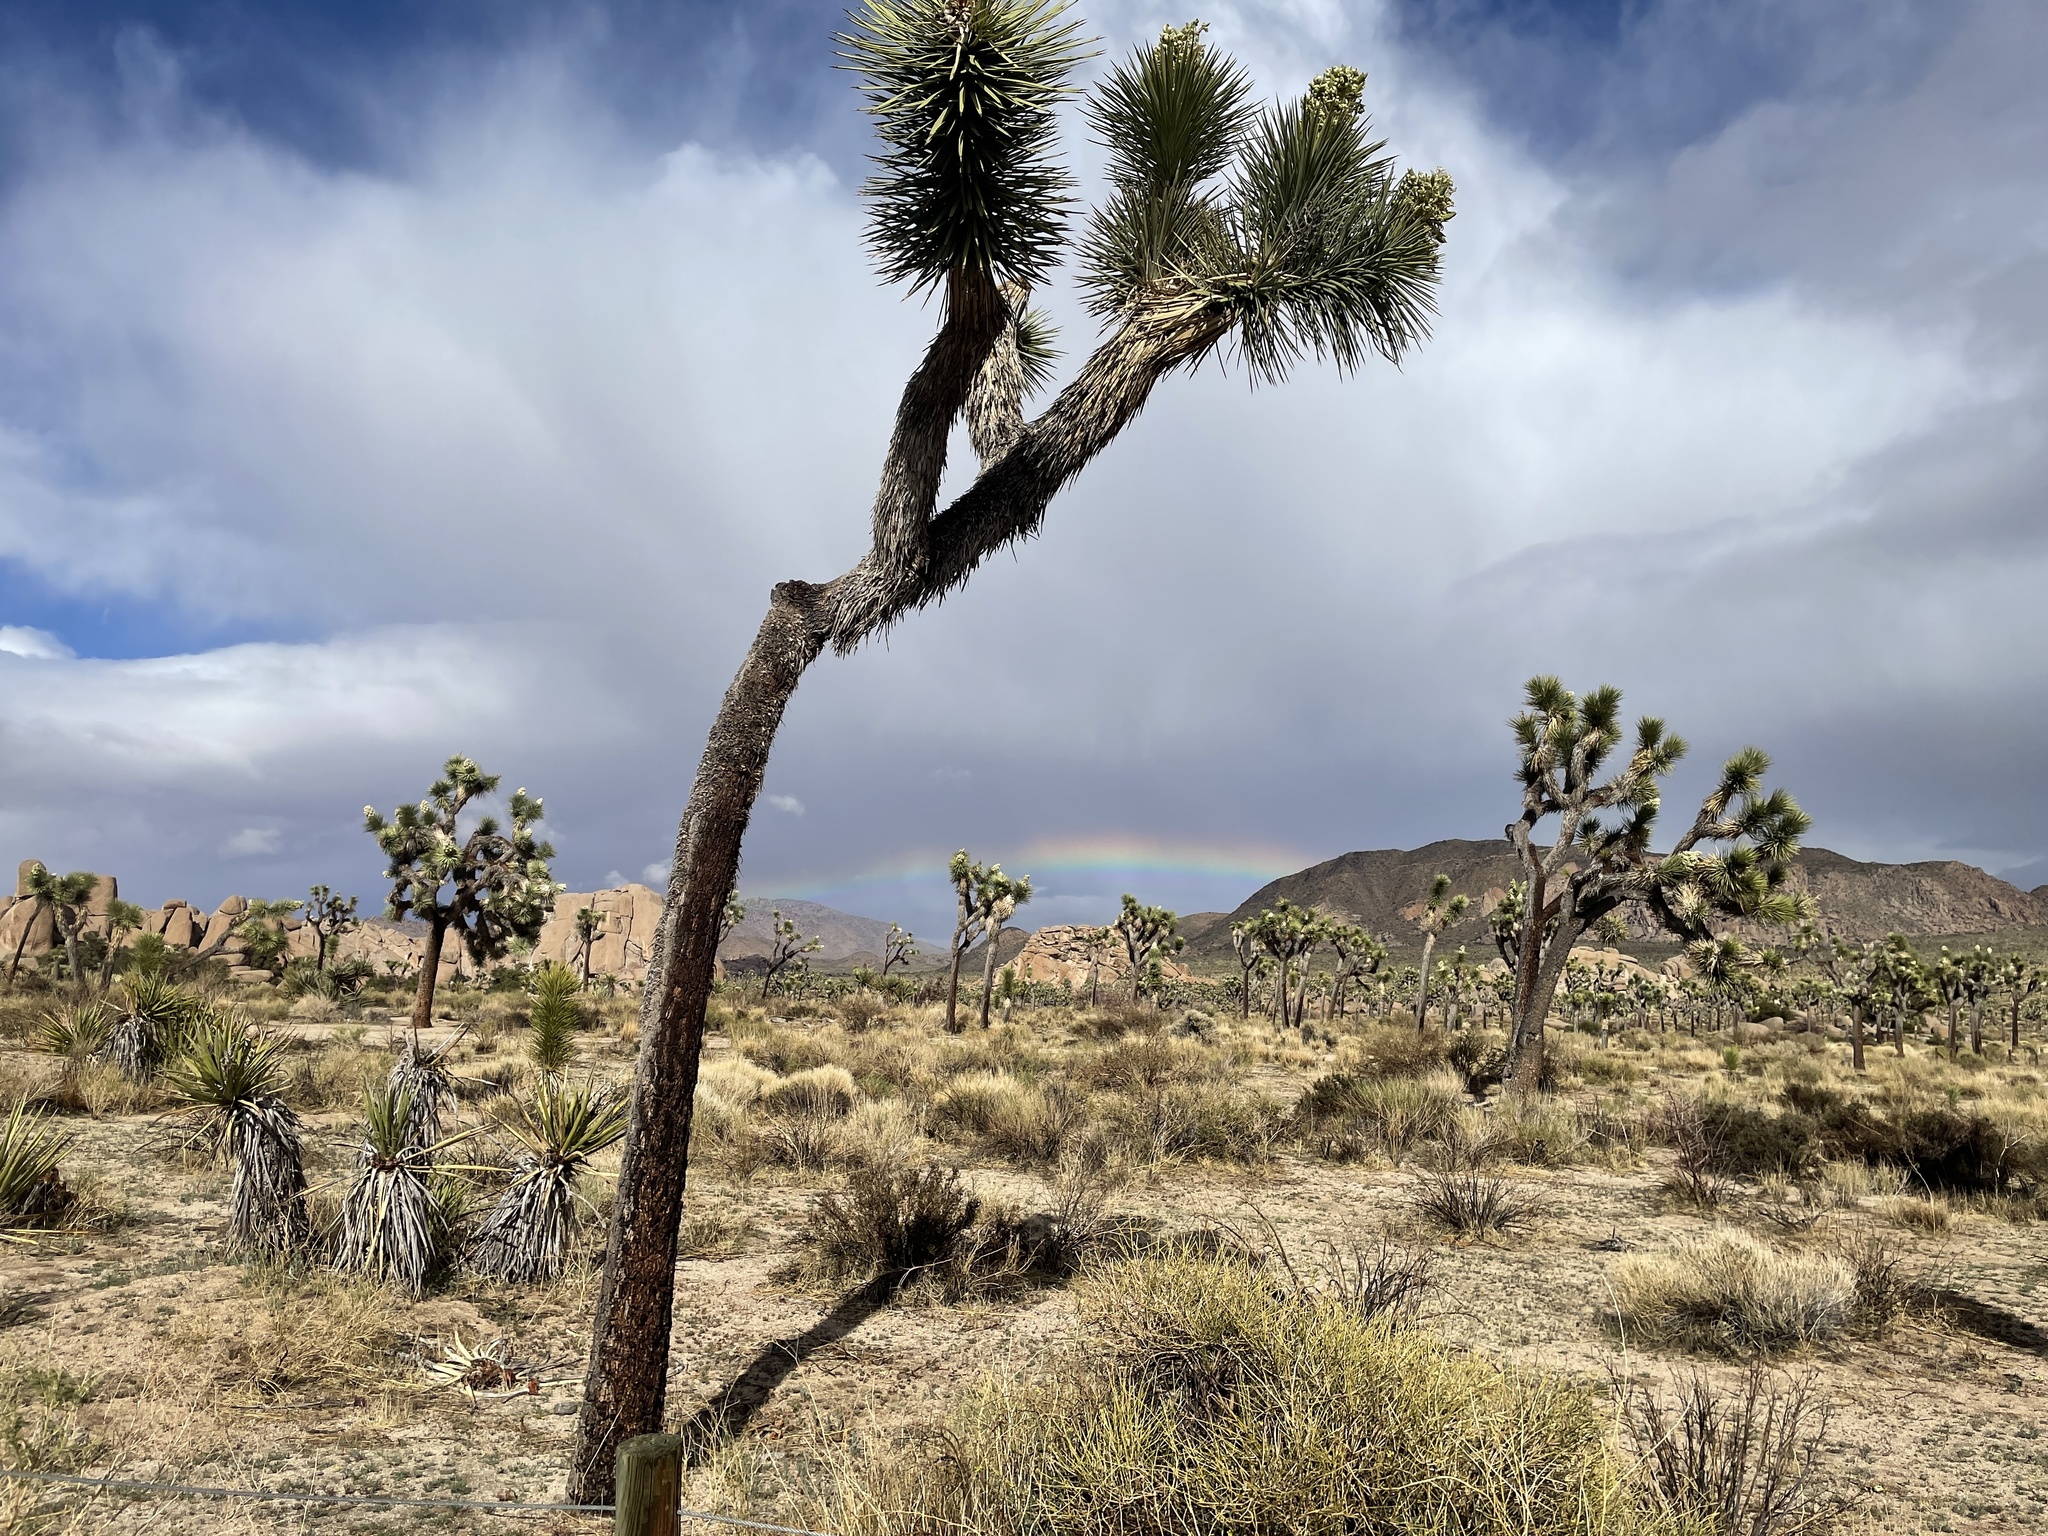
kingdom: Plantae
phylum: Tracheophyta
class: Liliopsida
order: Asparagales
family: Asparagaceae
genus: Yucca
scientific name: Yucca brevifolia
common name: Joshua tree
